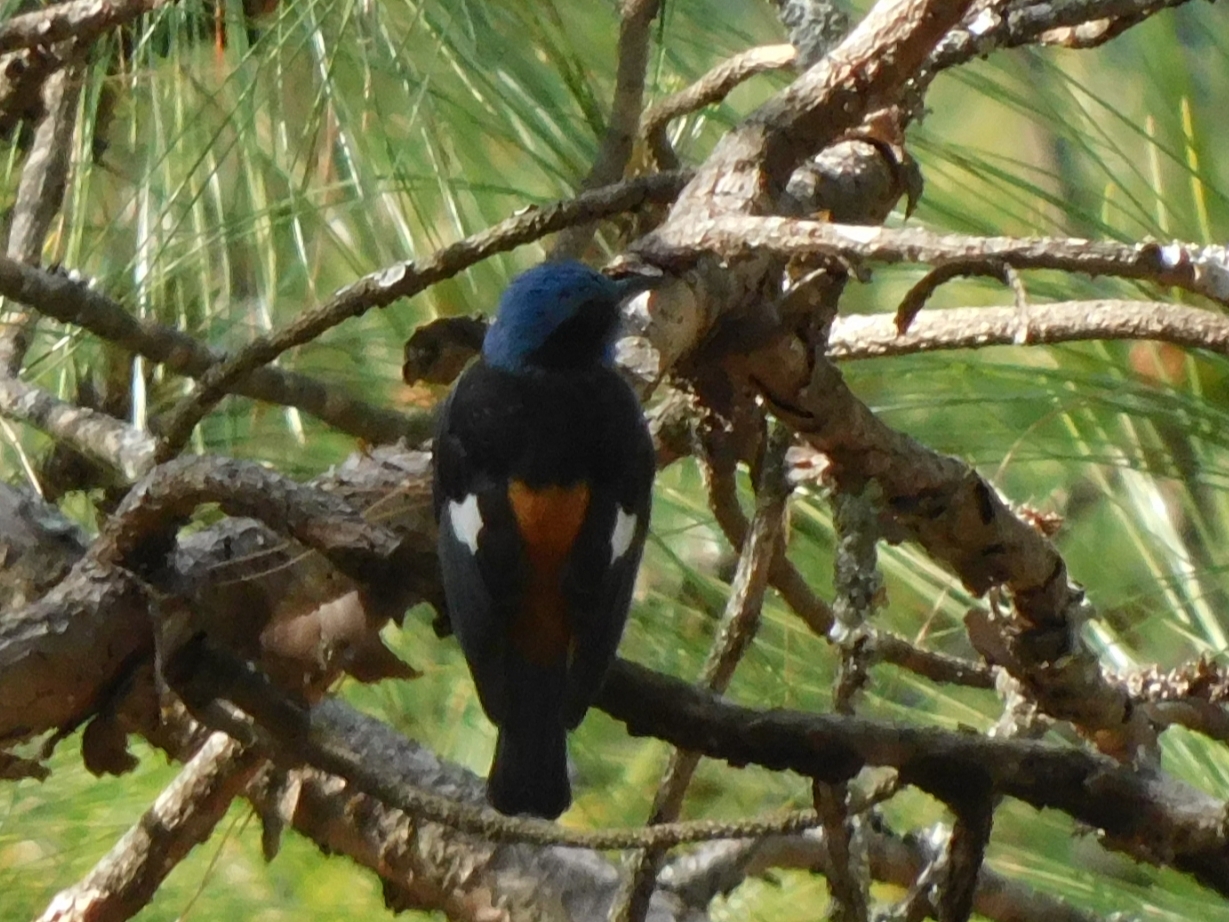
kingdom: Animalia
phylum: Chordata
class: Aves
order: Passeriformes
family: Muscicapidae
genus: Monticola
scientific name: Monticola cinclorhynchus
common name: Blue-capped rock thrush
